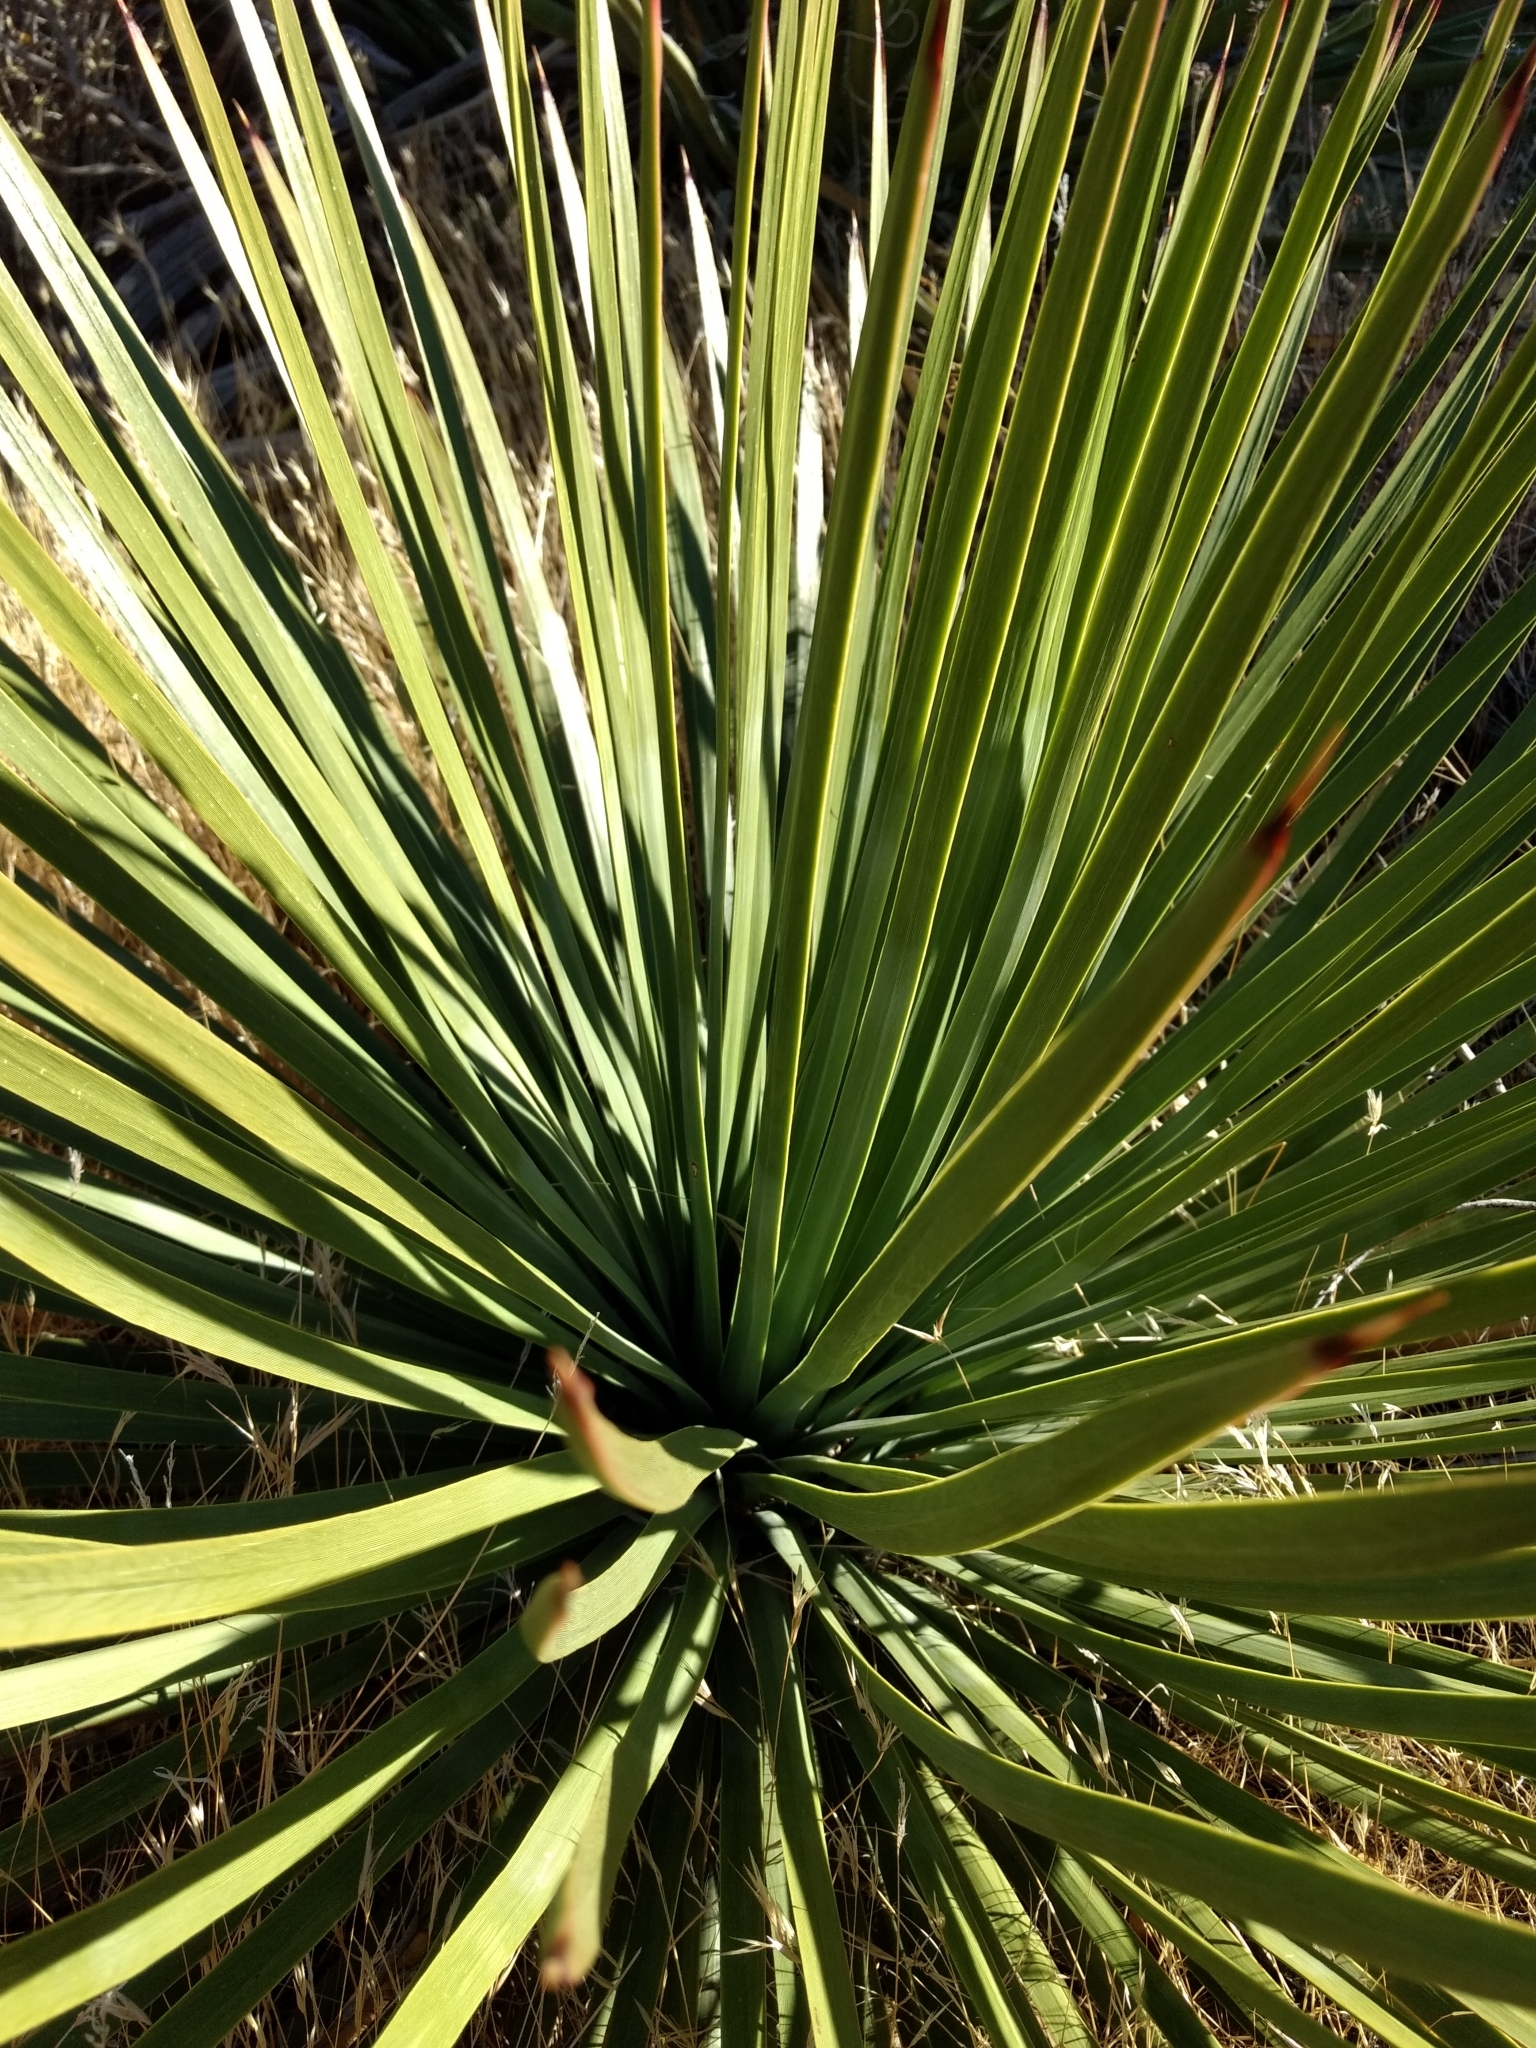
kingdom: Plantae
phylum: Tracheophyta
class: Liliopsida
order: Asparagales
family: Asparagaceae
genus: Hesperoyucca
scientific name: Hesperoyucca whipplei
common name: Our lord's-candle
